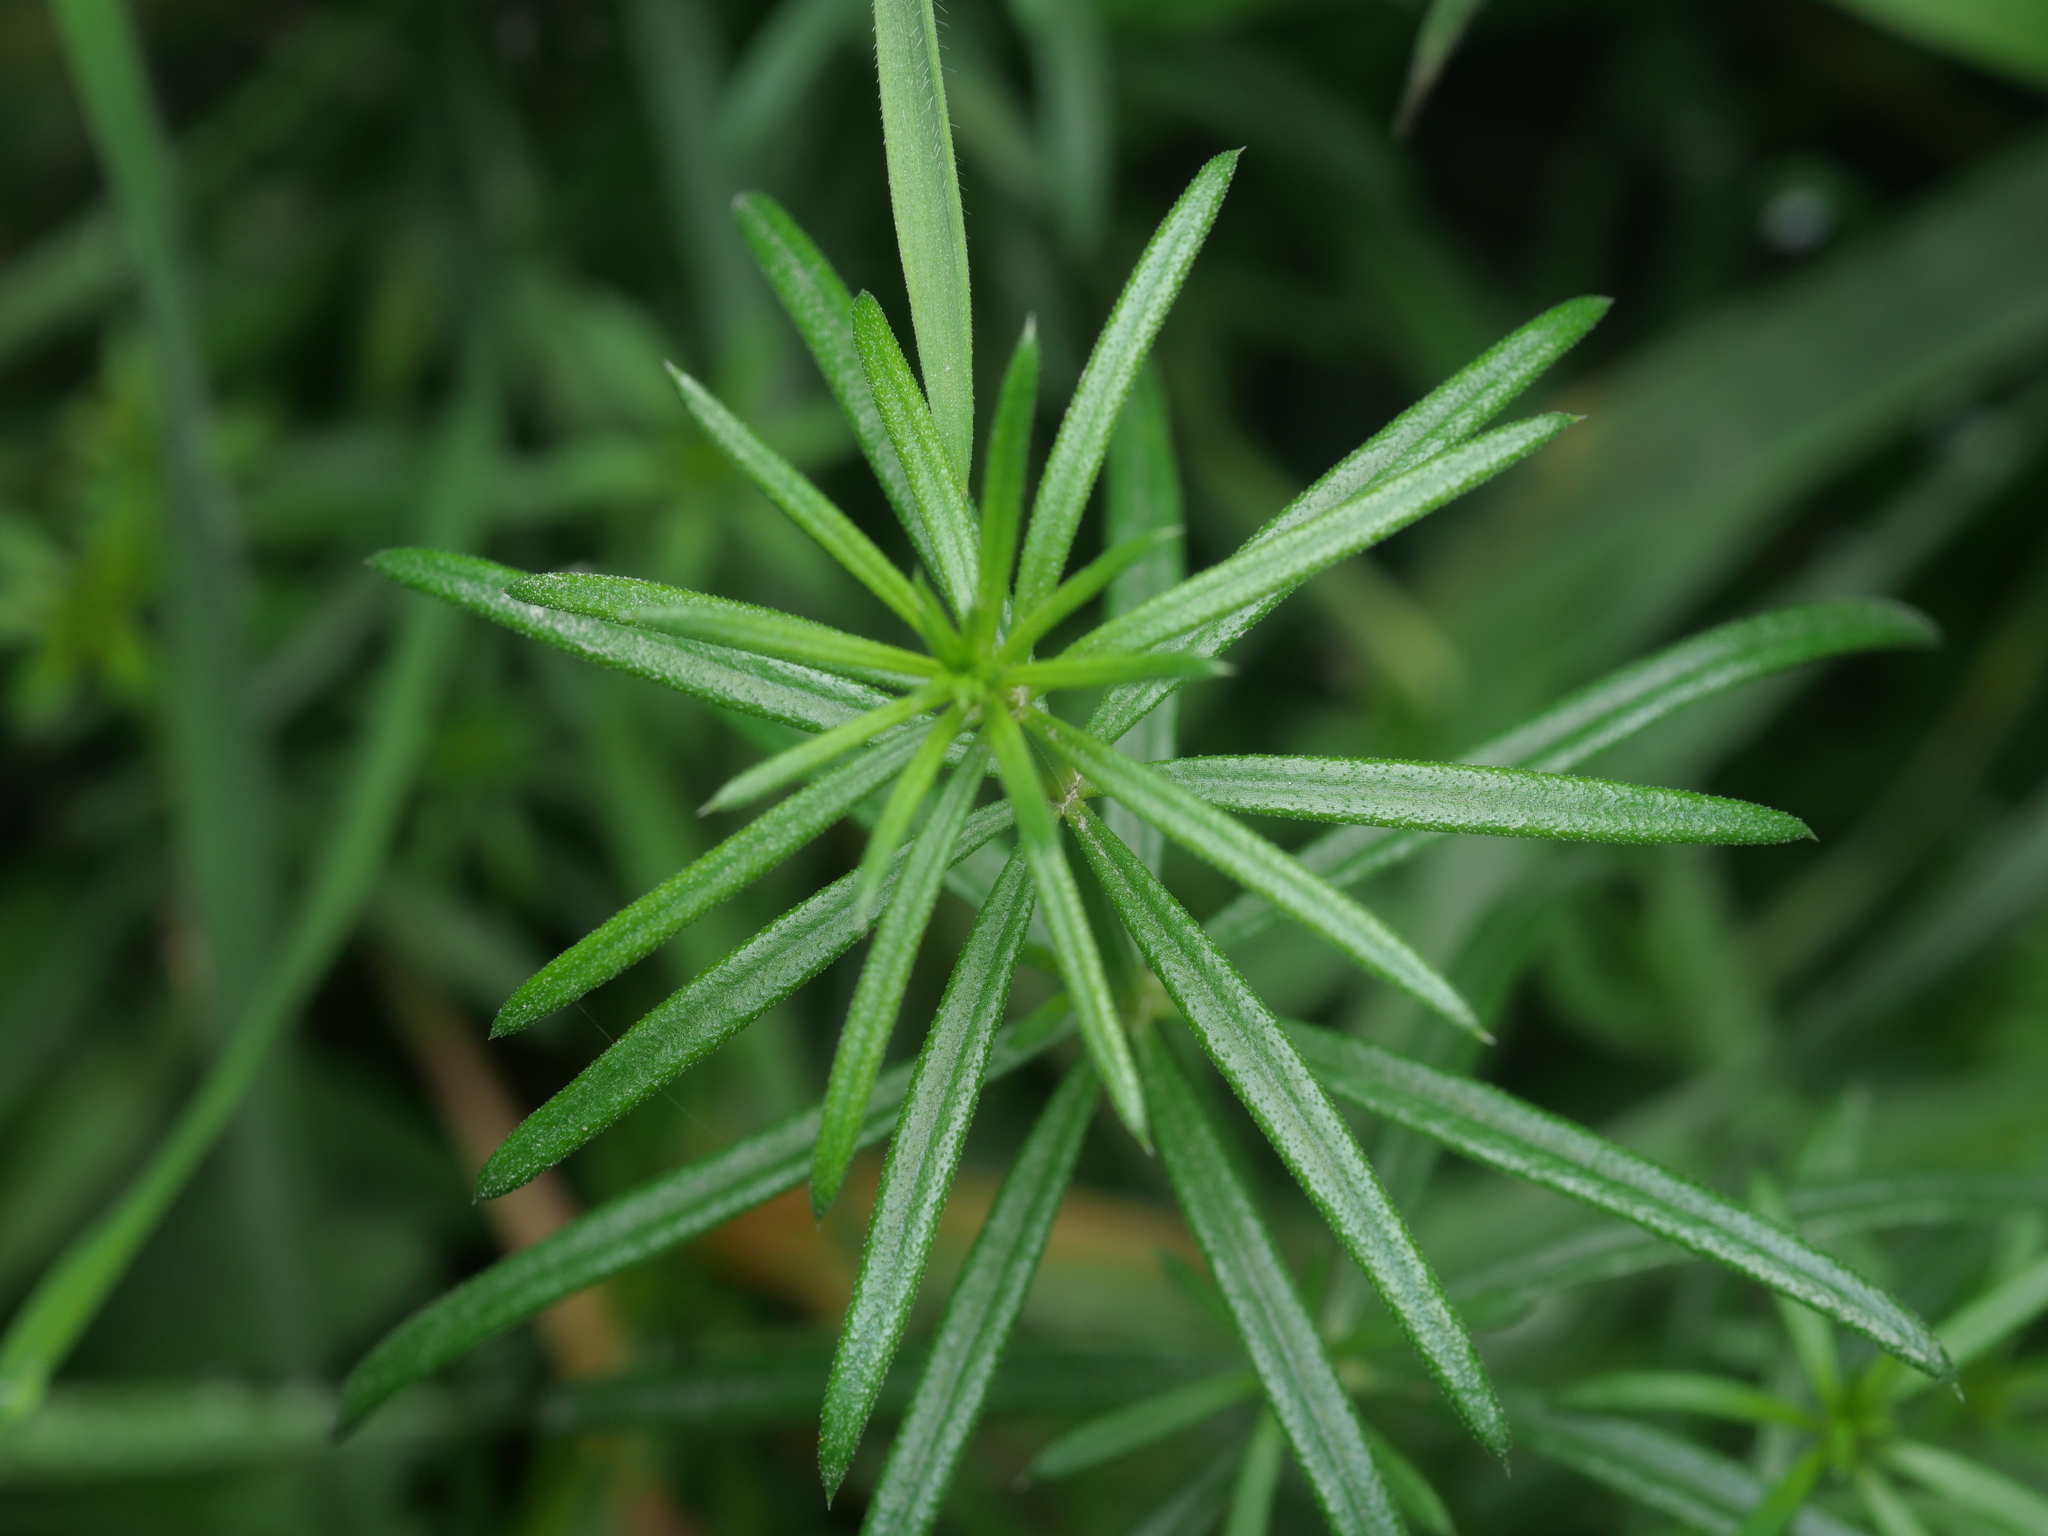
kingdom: Plantae
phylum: Tracheophyta
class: Magnoliopsida
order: Gentianales
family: Rubiaceae
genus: Galium
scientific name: Galium verum
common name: Lady's bedstraw
